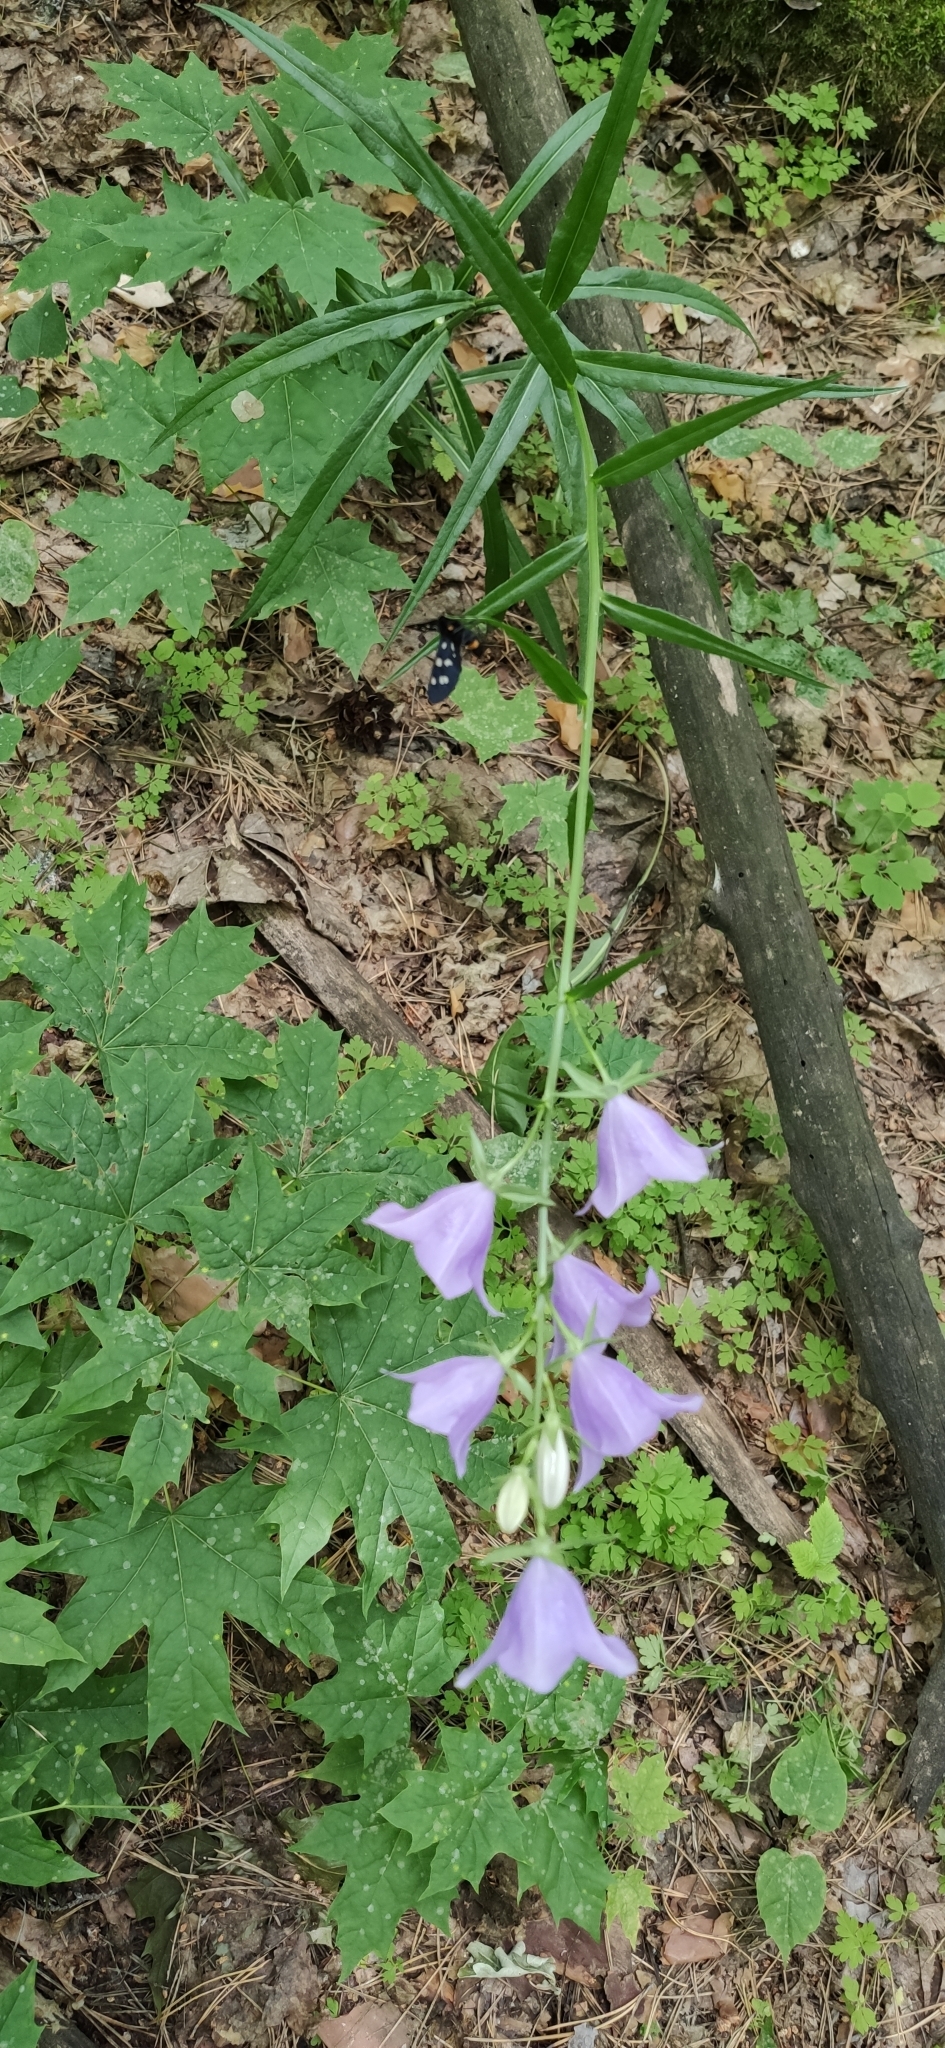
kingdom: Plantae
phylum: Tracheophyta
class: Magnoliopsida
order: Asterales
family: Campanulaceae
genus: Campanula
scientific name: Campanula persicifolia
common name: Peach-leaved bellflower
